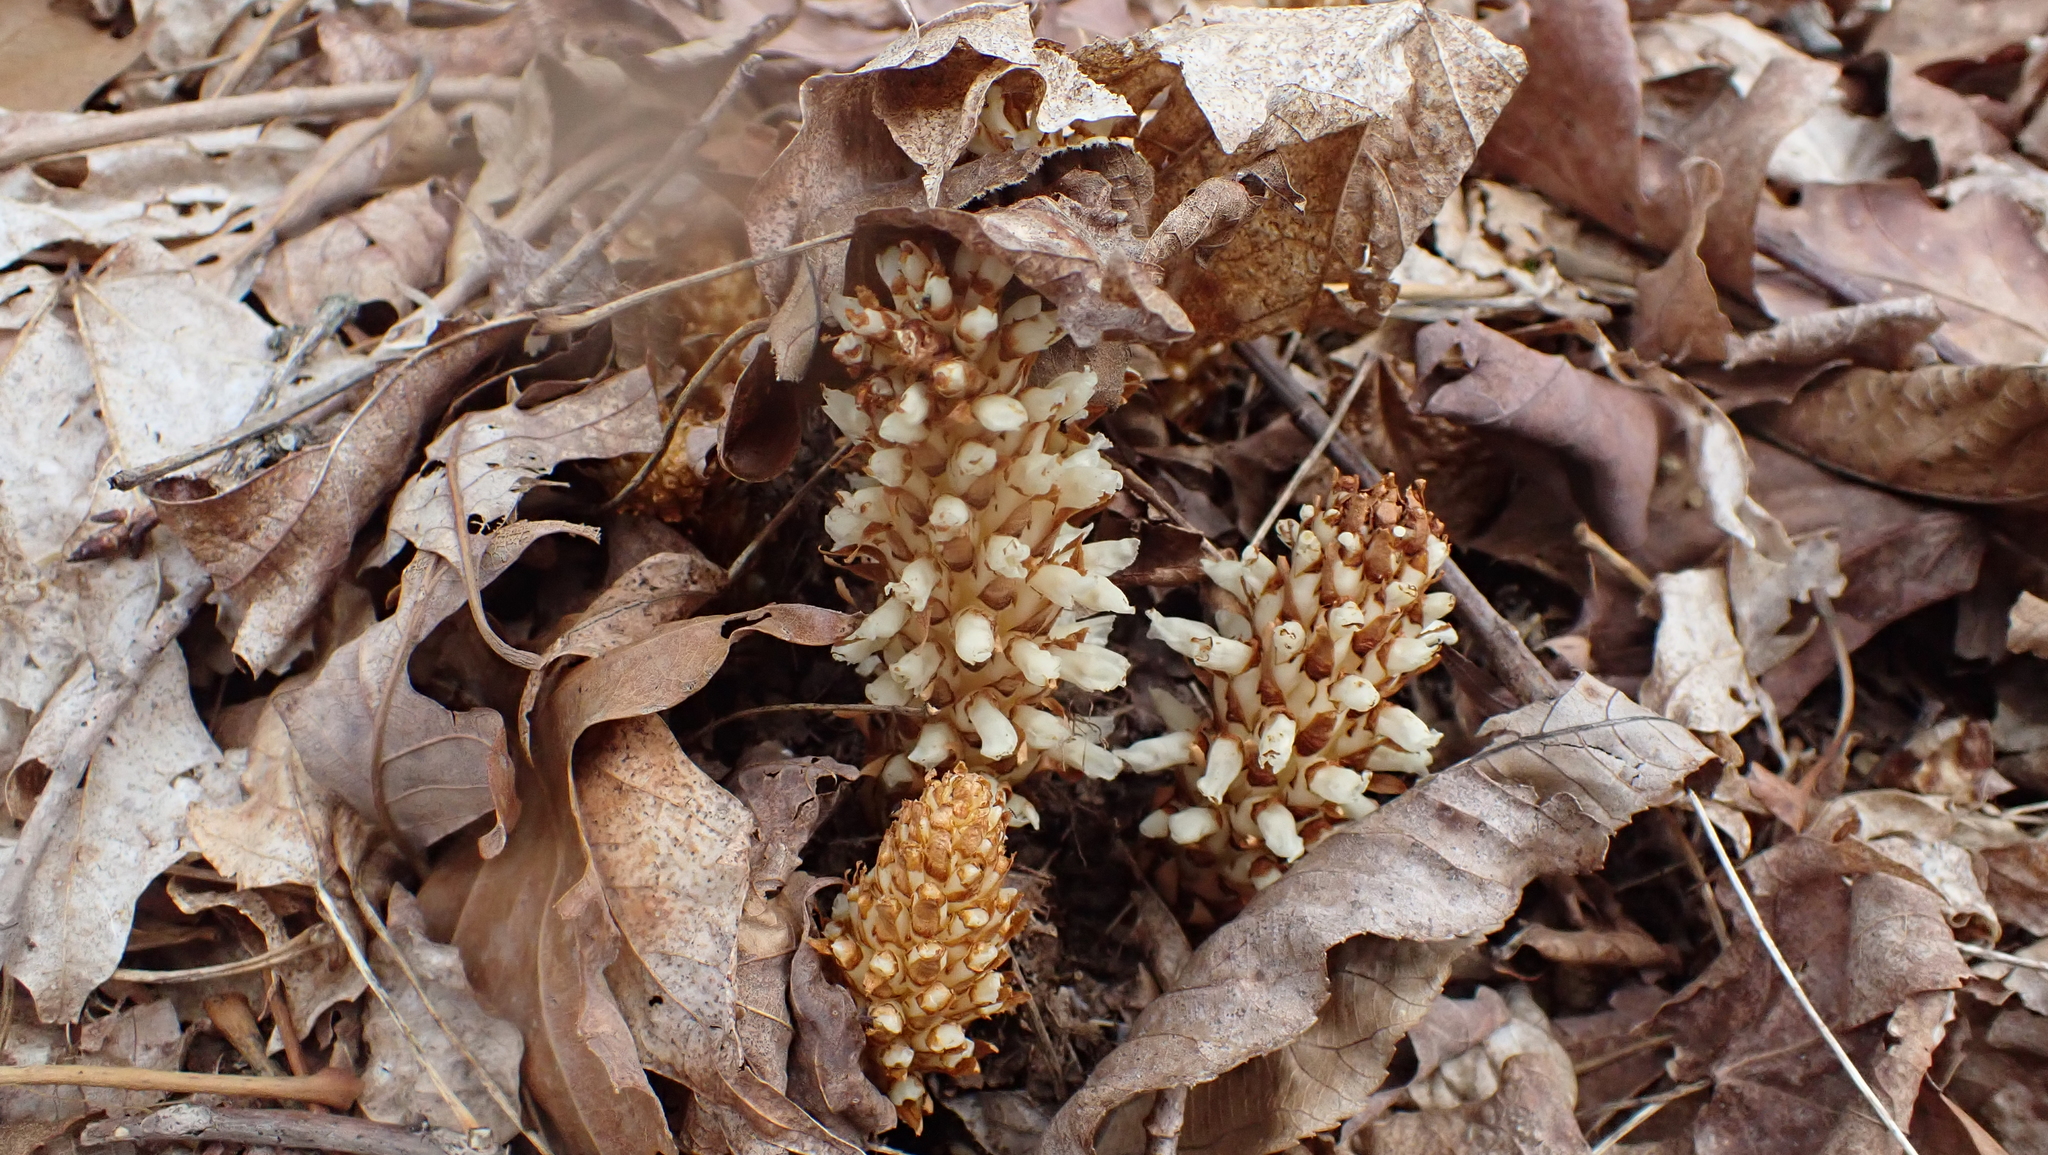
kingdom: Plantae
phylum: Tracheophyta
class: Magnoliopsida
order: Lamiales
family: Orobanchaceae
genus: Conopholis
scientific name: Conopholis americana
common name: American cancer-root
